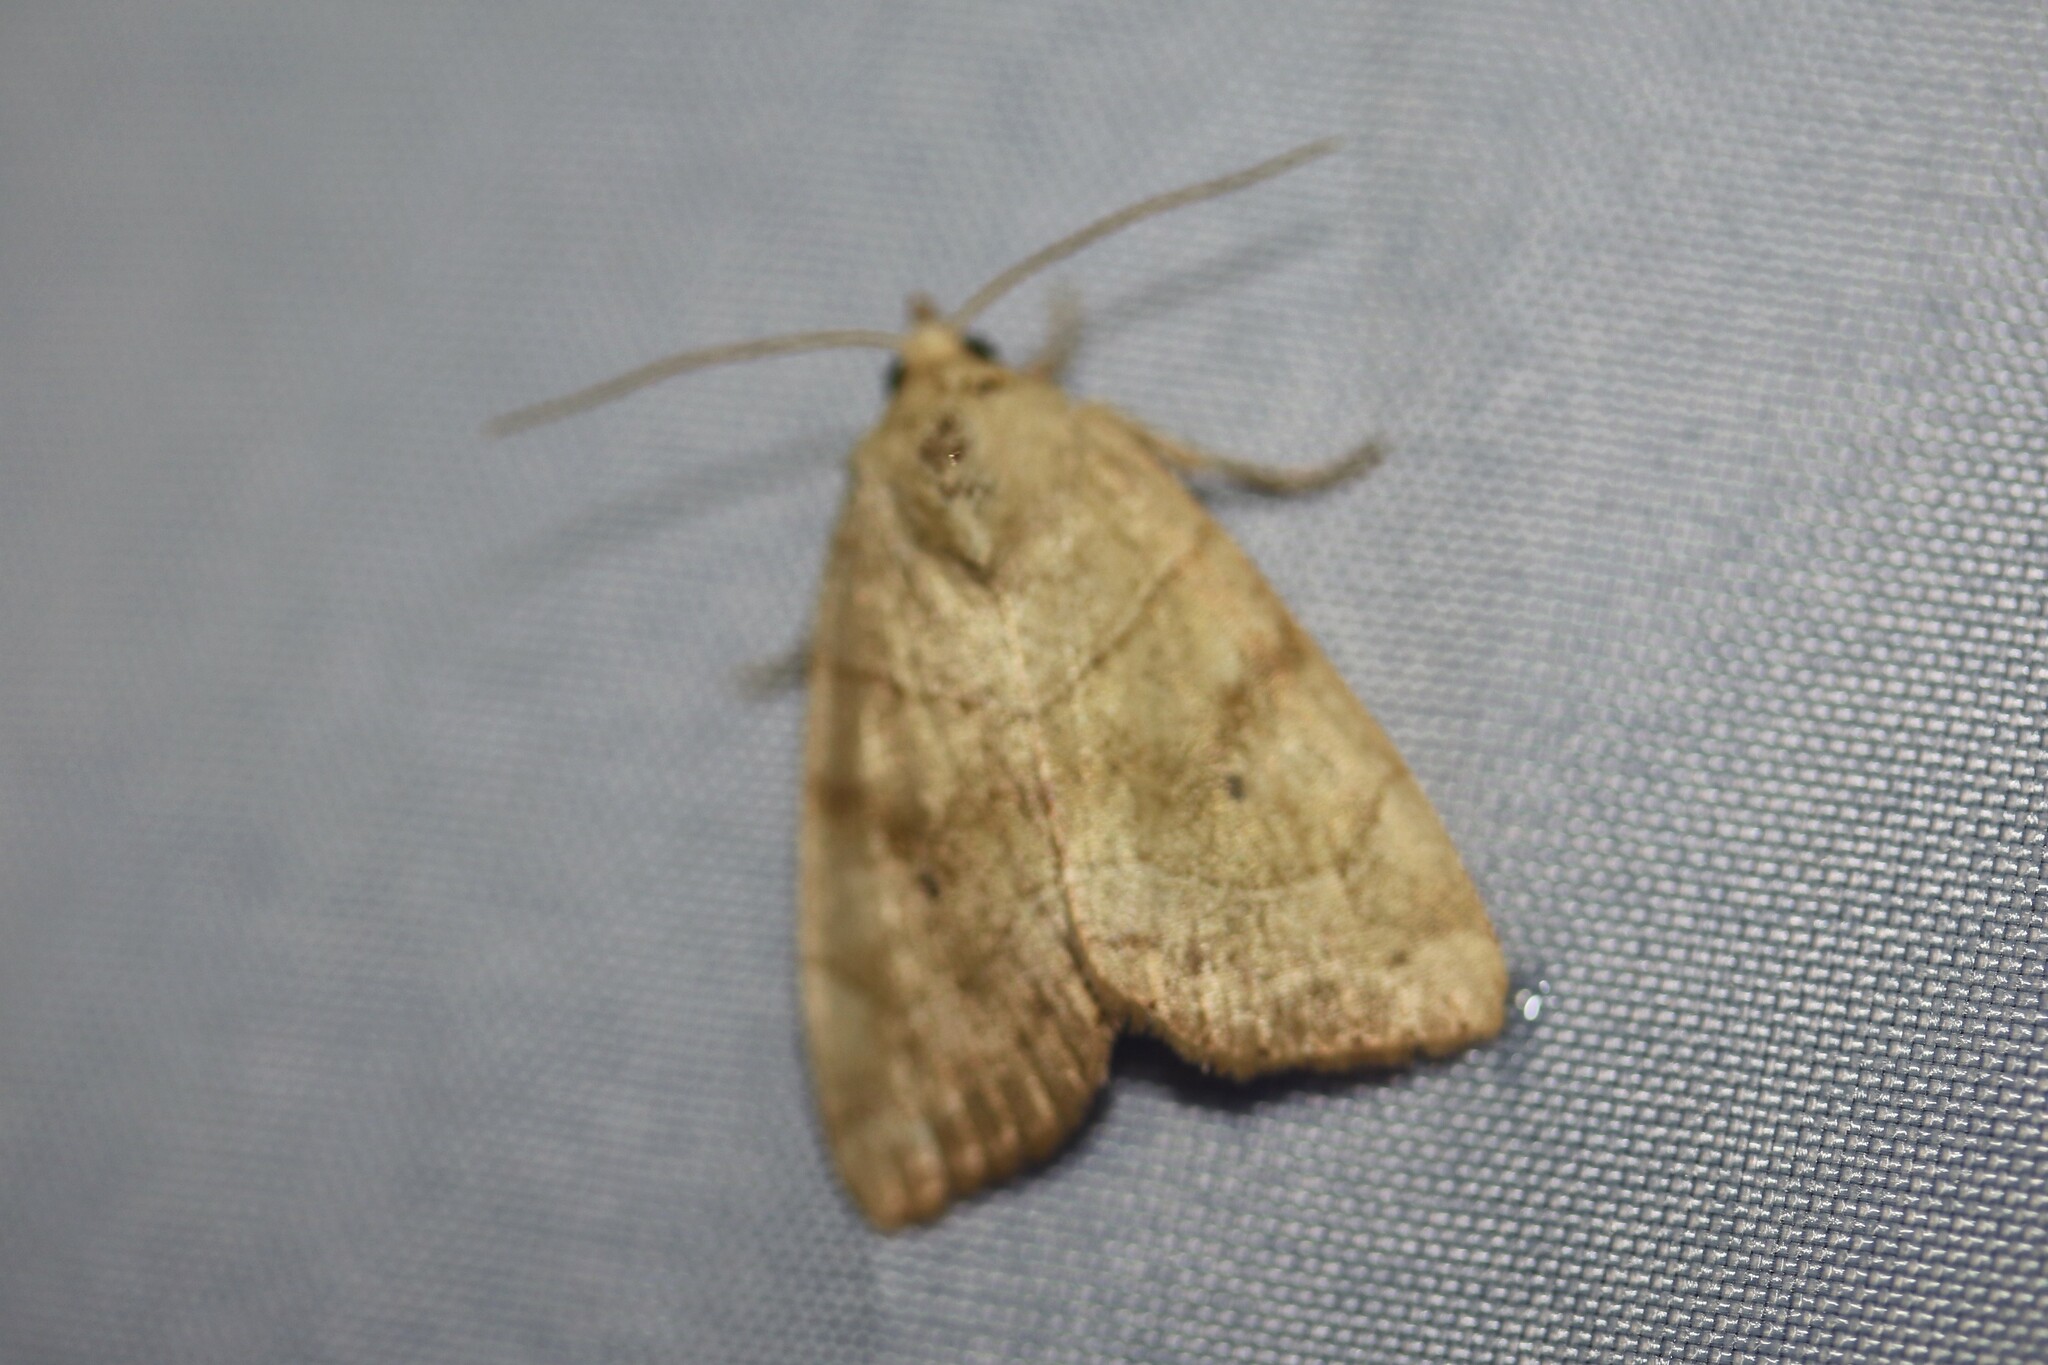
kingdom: Animalia
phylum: Arthropoda
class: Insecta
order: Lepidoptera
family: Noctuidae
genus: Cosmia
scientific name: Cosmia trapezina
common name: Dun-bar
